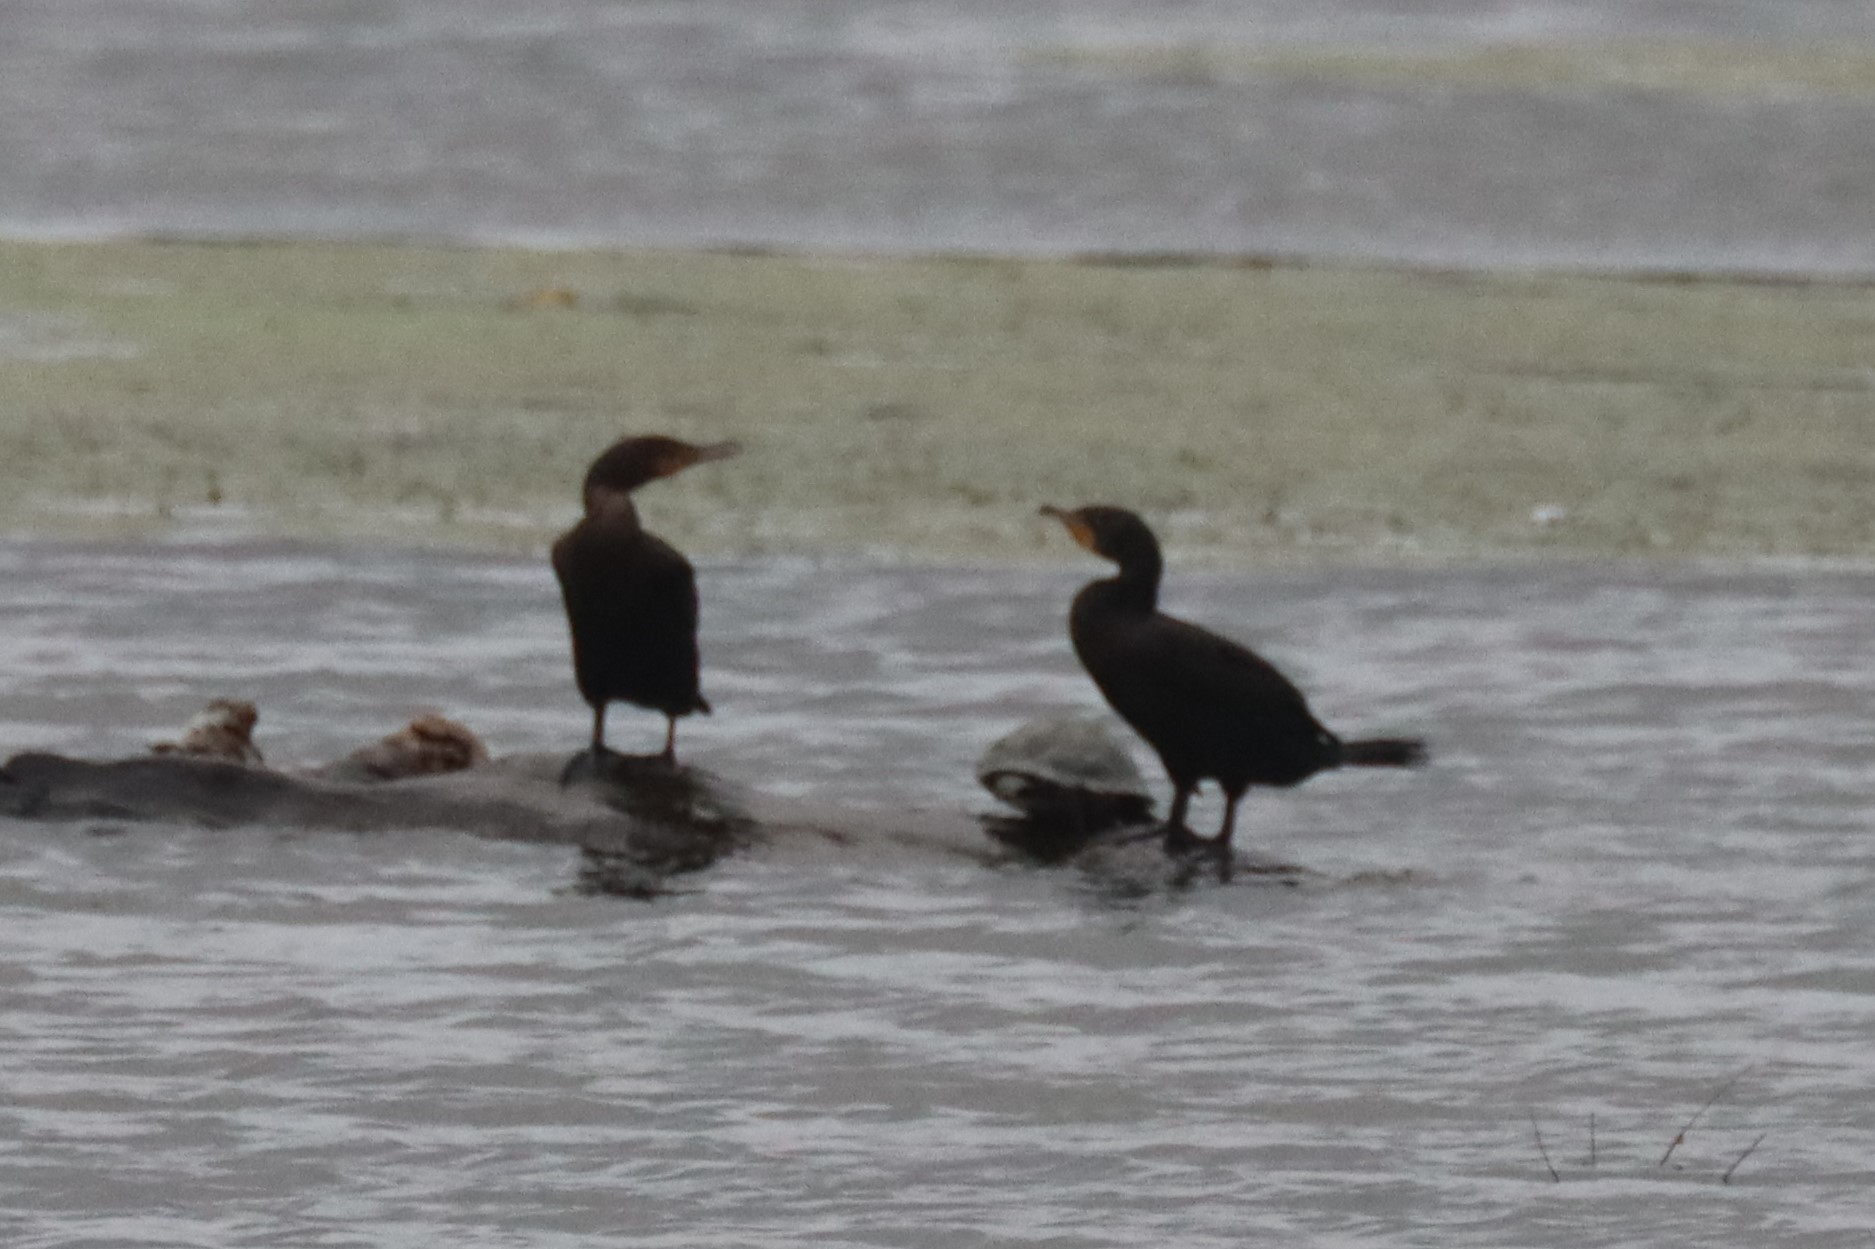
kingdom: Animalia
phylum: Chordata
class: Aves
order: Suliformes
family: Phalacrocoracidae
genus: Phalacrocorax
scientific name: Phalacrocorax auritus
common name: Double-crested cormorant
